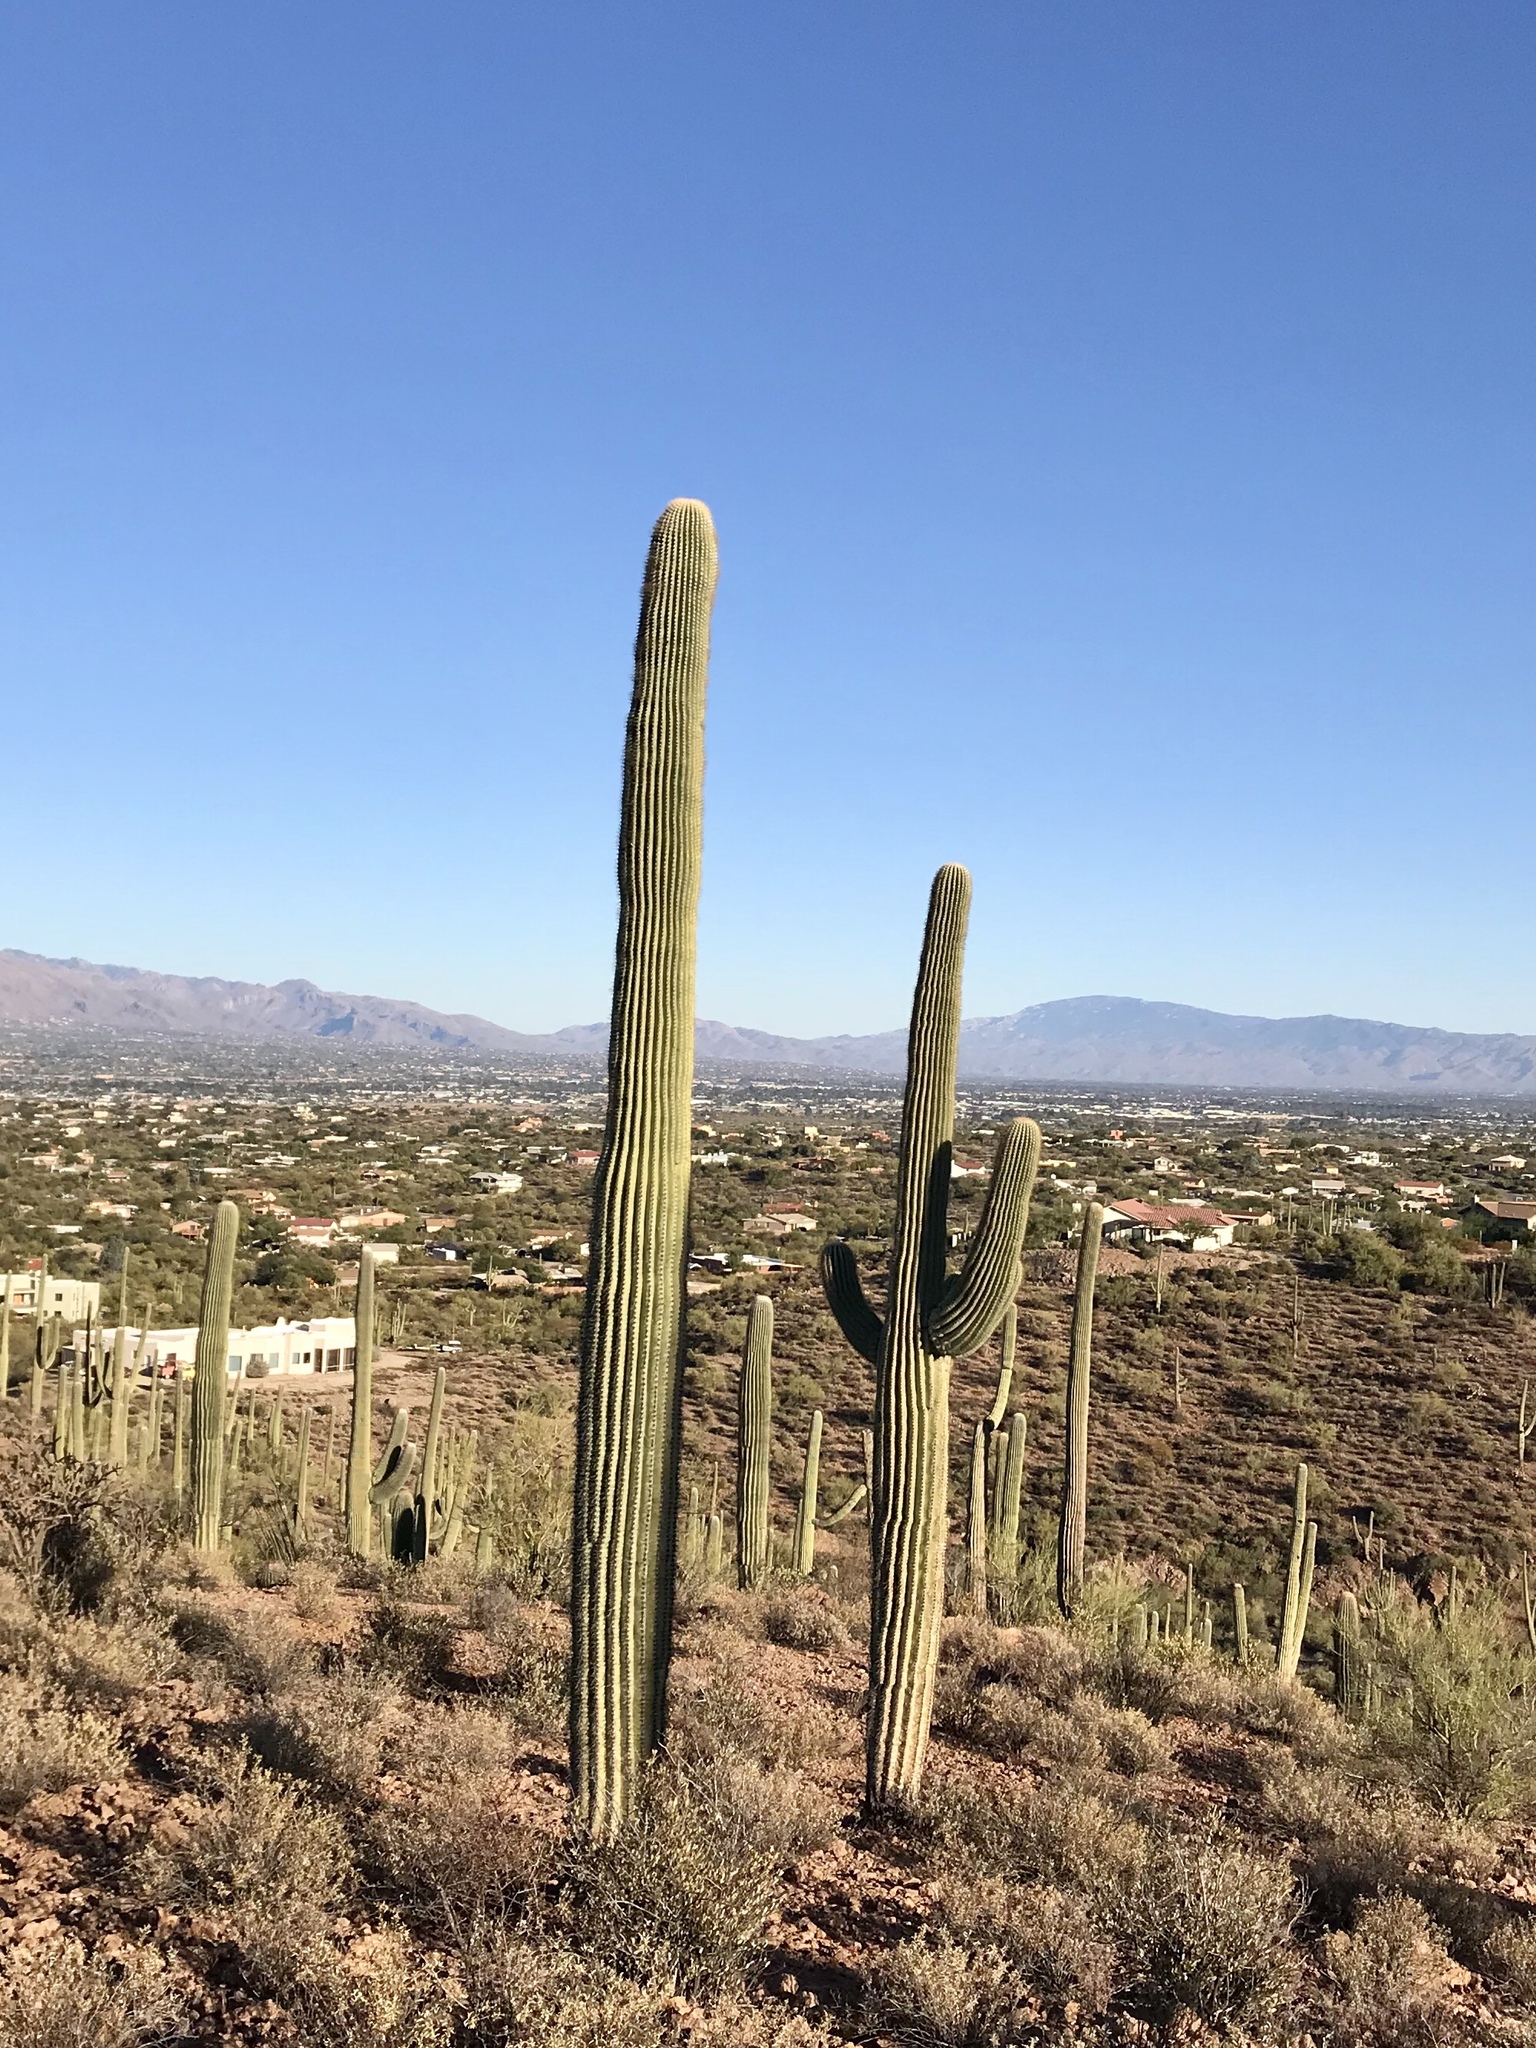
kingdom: Plantae
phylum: Tracheophyta
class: Magnoliopsida
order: Caryophyllales
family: Cactaceae
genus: Carnegiea
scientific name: Carnegiea gigantea
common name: Saguaro
